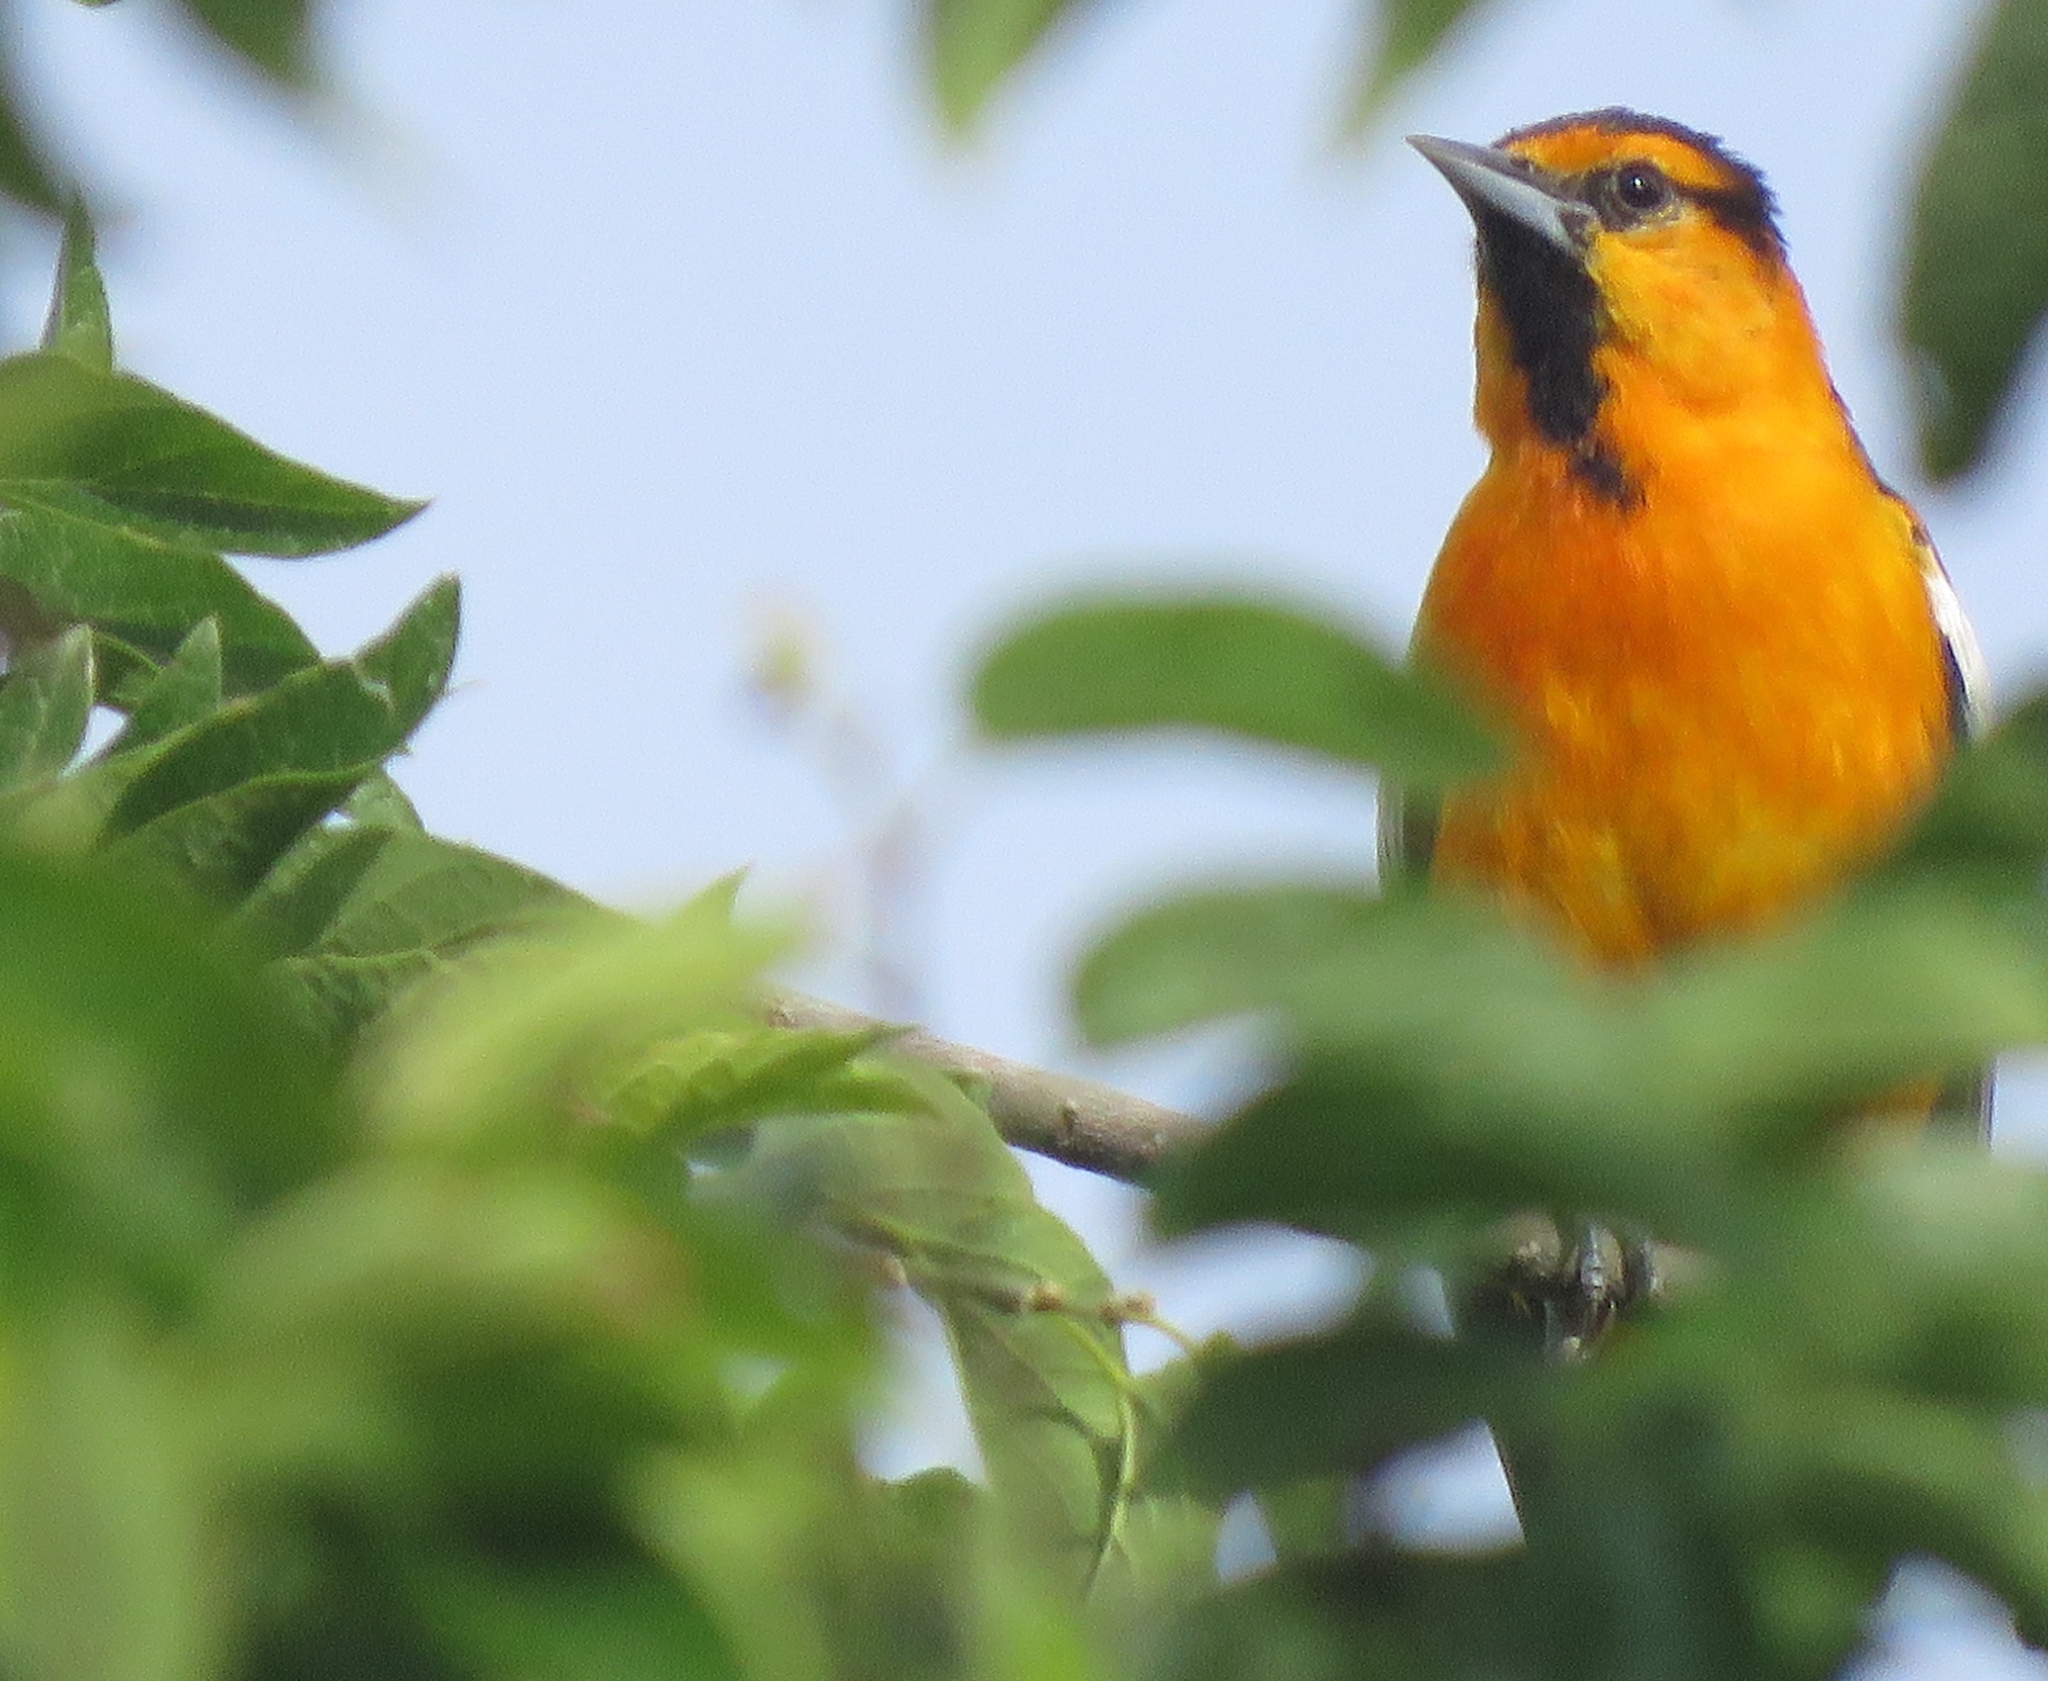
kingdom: Animalia
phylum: Chordata
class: Aves
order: Passeriformes
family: Icteridae
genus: Icterus
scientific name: Icterus bullockii
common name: Bullock's oriole
